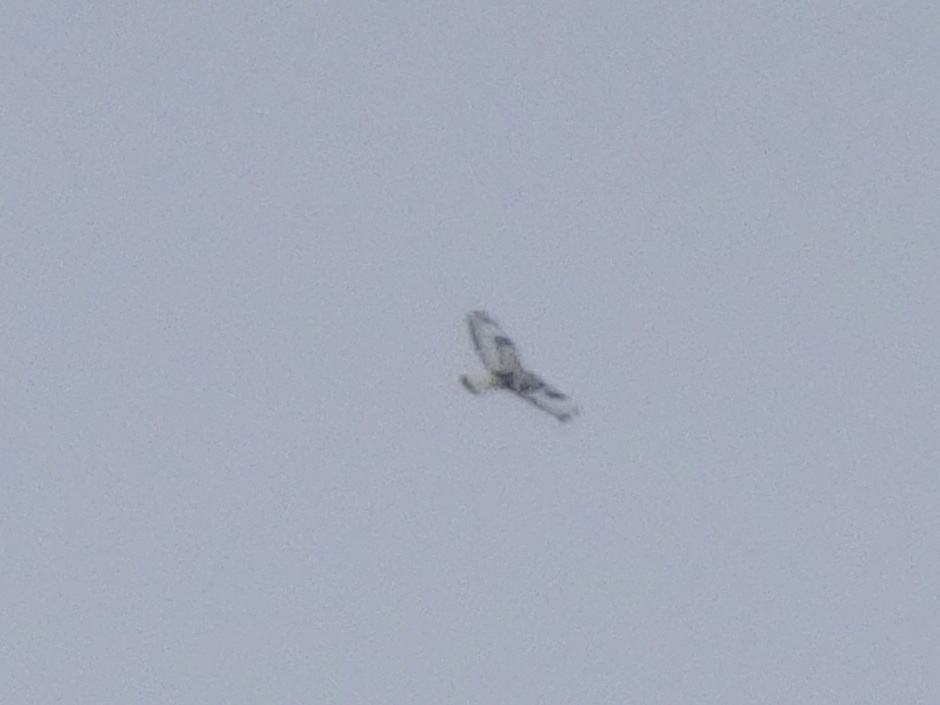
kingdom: Animalia
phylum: Chordata
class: Aves
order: Accipitriformes
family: Accipitridae
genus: Buteo
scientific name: Buteo lagopus
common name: Rough-legged buzzard
